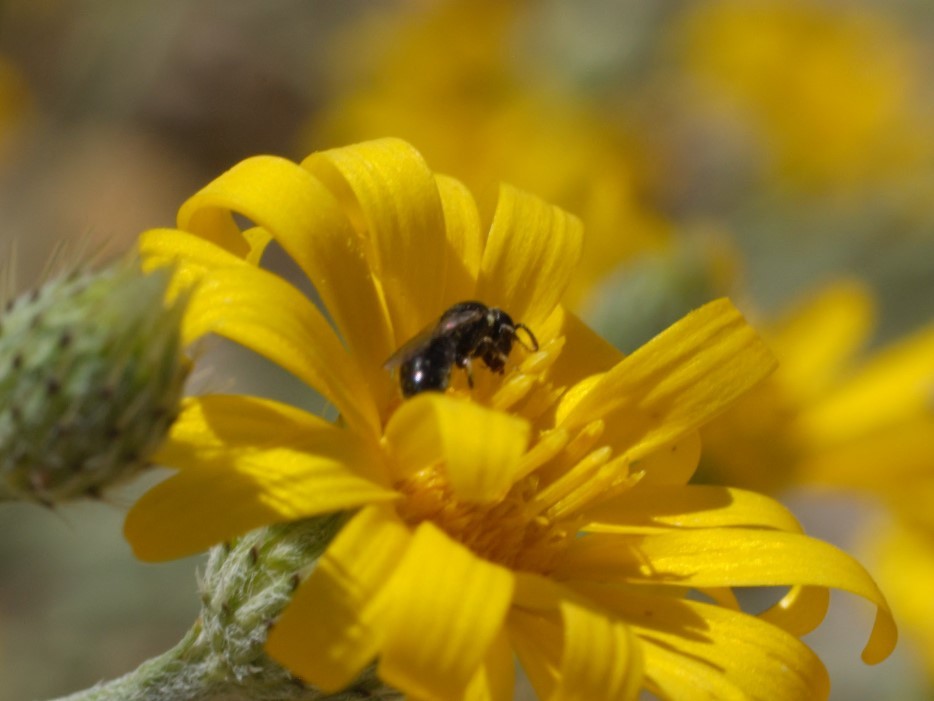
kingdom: Animalia
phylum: Arthropoda
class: Insecta
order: Hymenoptera
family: Colletidae
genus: Hylaeus
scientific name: Hylaeus
